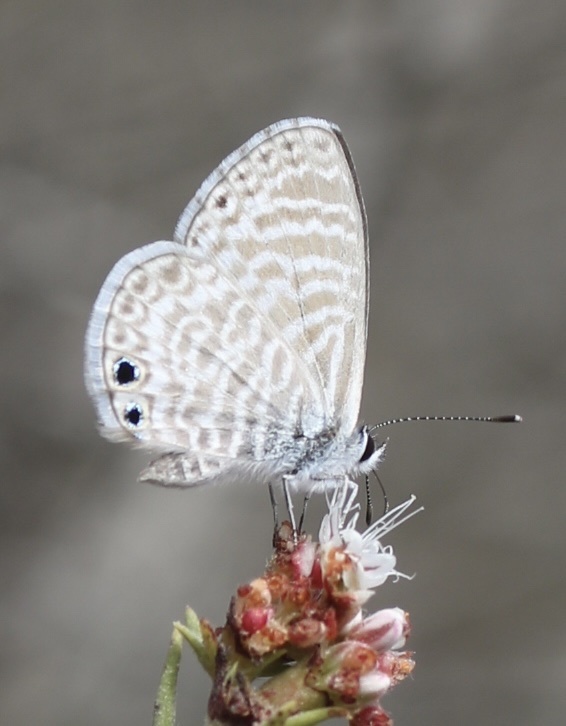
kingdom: Animalia
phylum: Arthropoda
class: Insecta
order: Lepidoptera
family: Lycaenidae
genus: Leptotes
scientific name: Leptotes marina
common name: Marine blue
